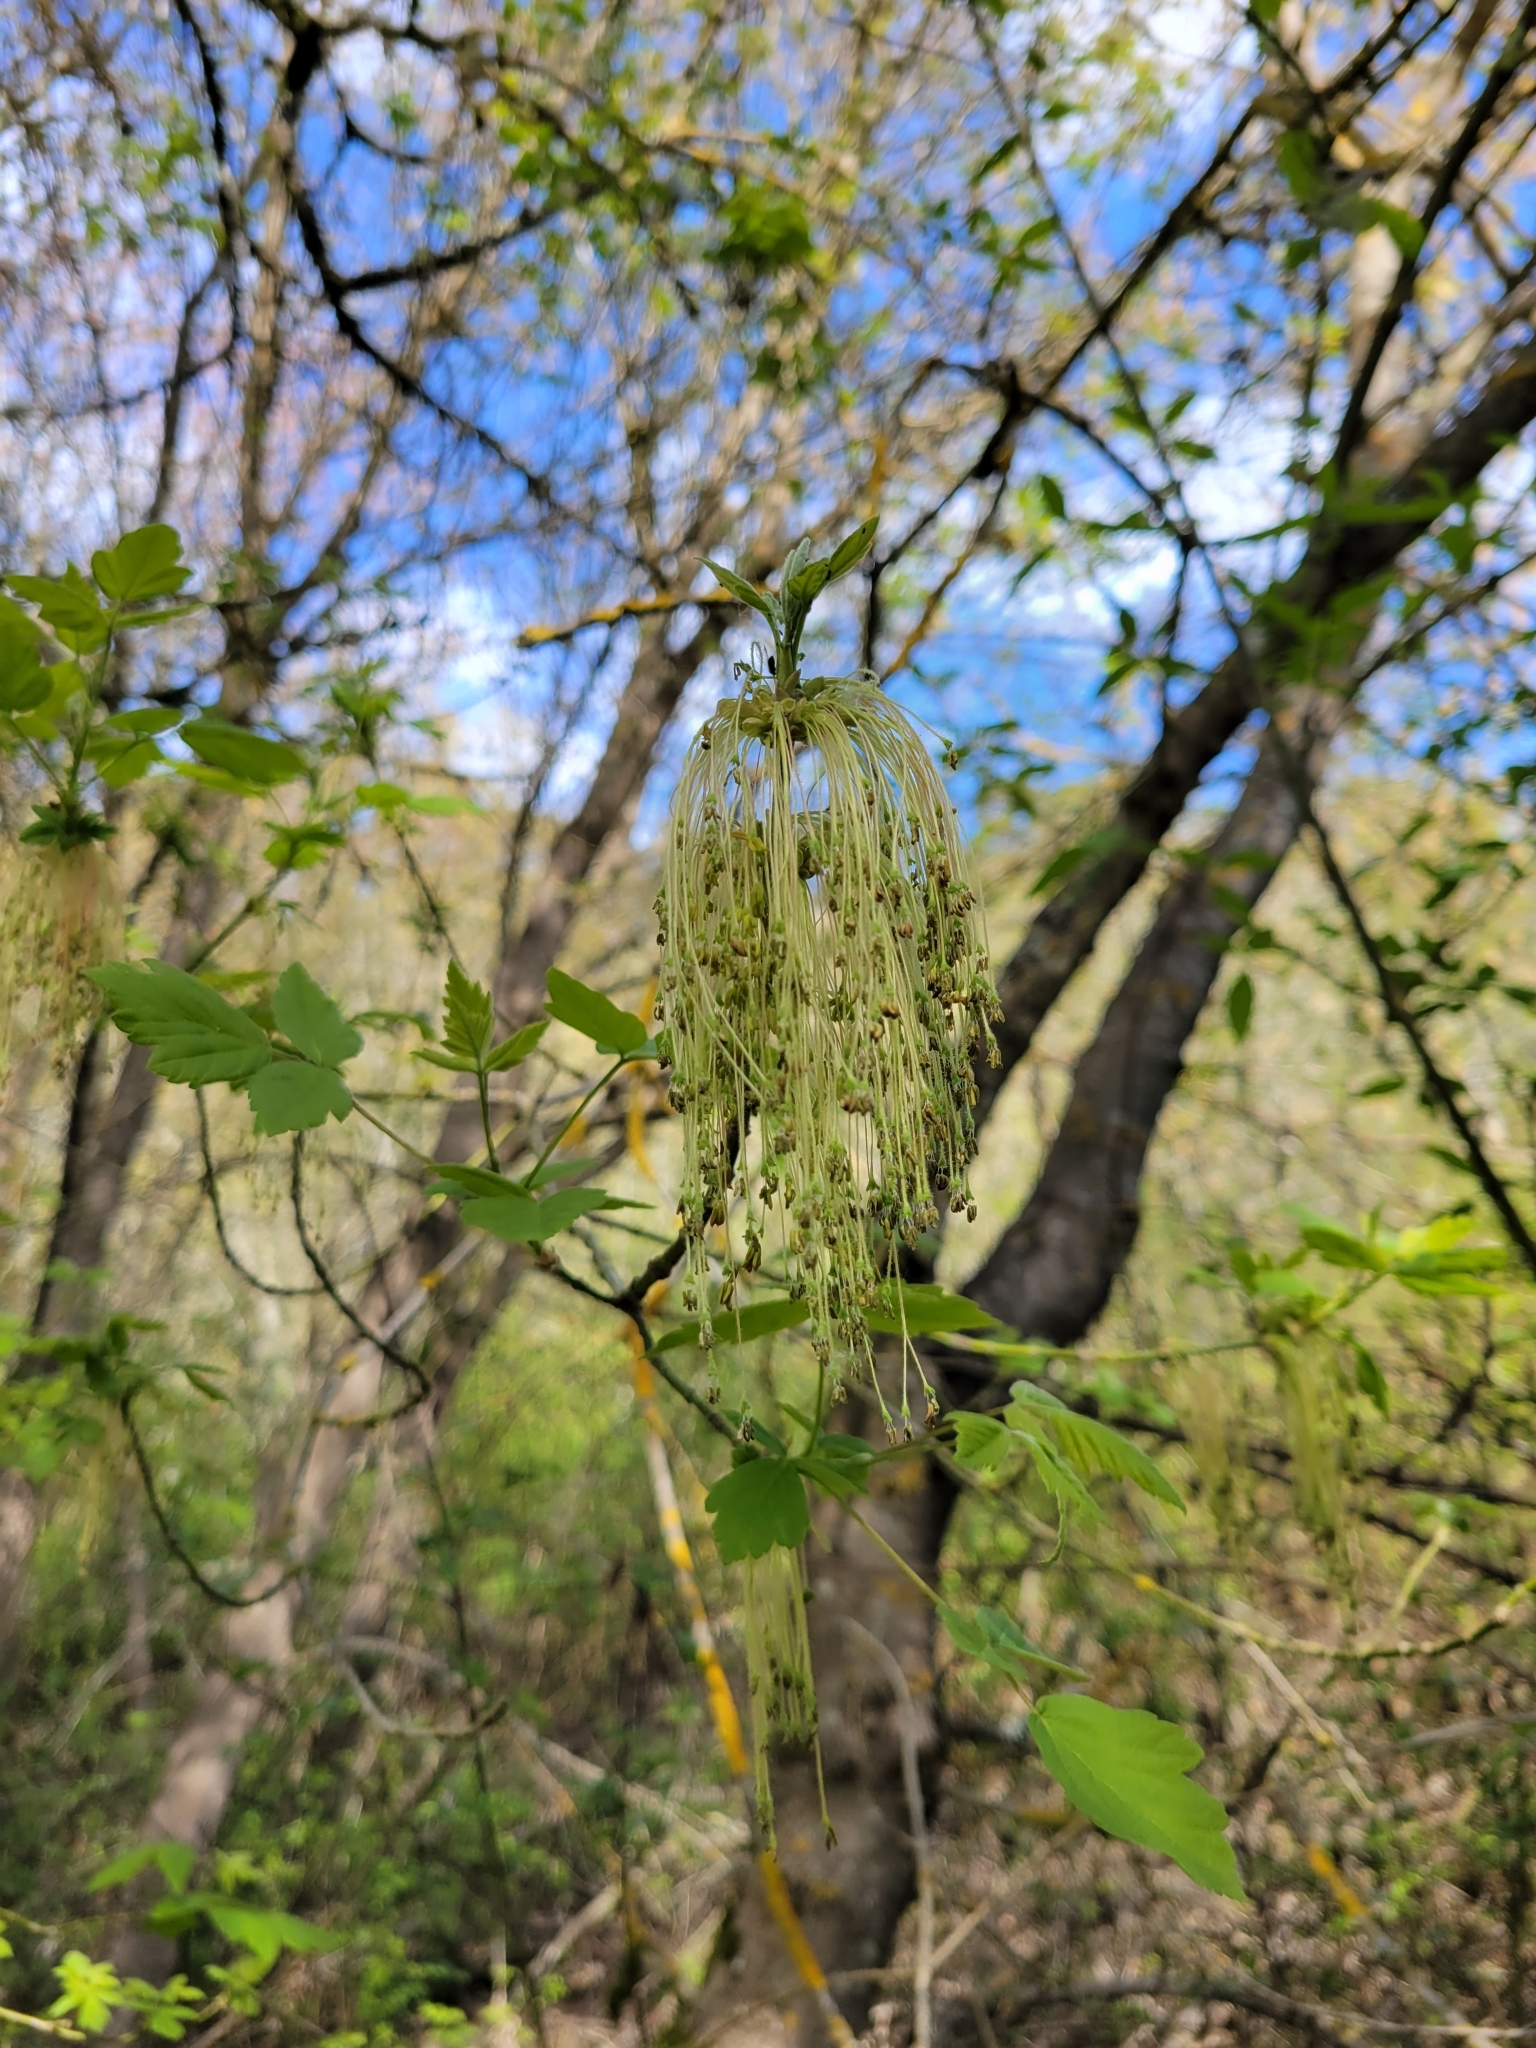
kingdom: Plantae
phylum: Tracheophyta
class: Magnoliopsida
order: Sapindales
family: Sapindaceae
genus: Acer
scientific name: Acer negundo
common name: Ashleaf maple
